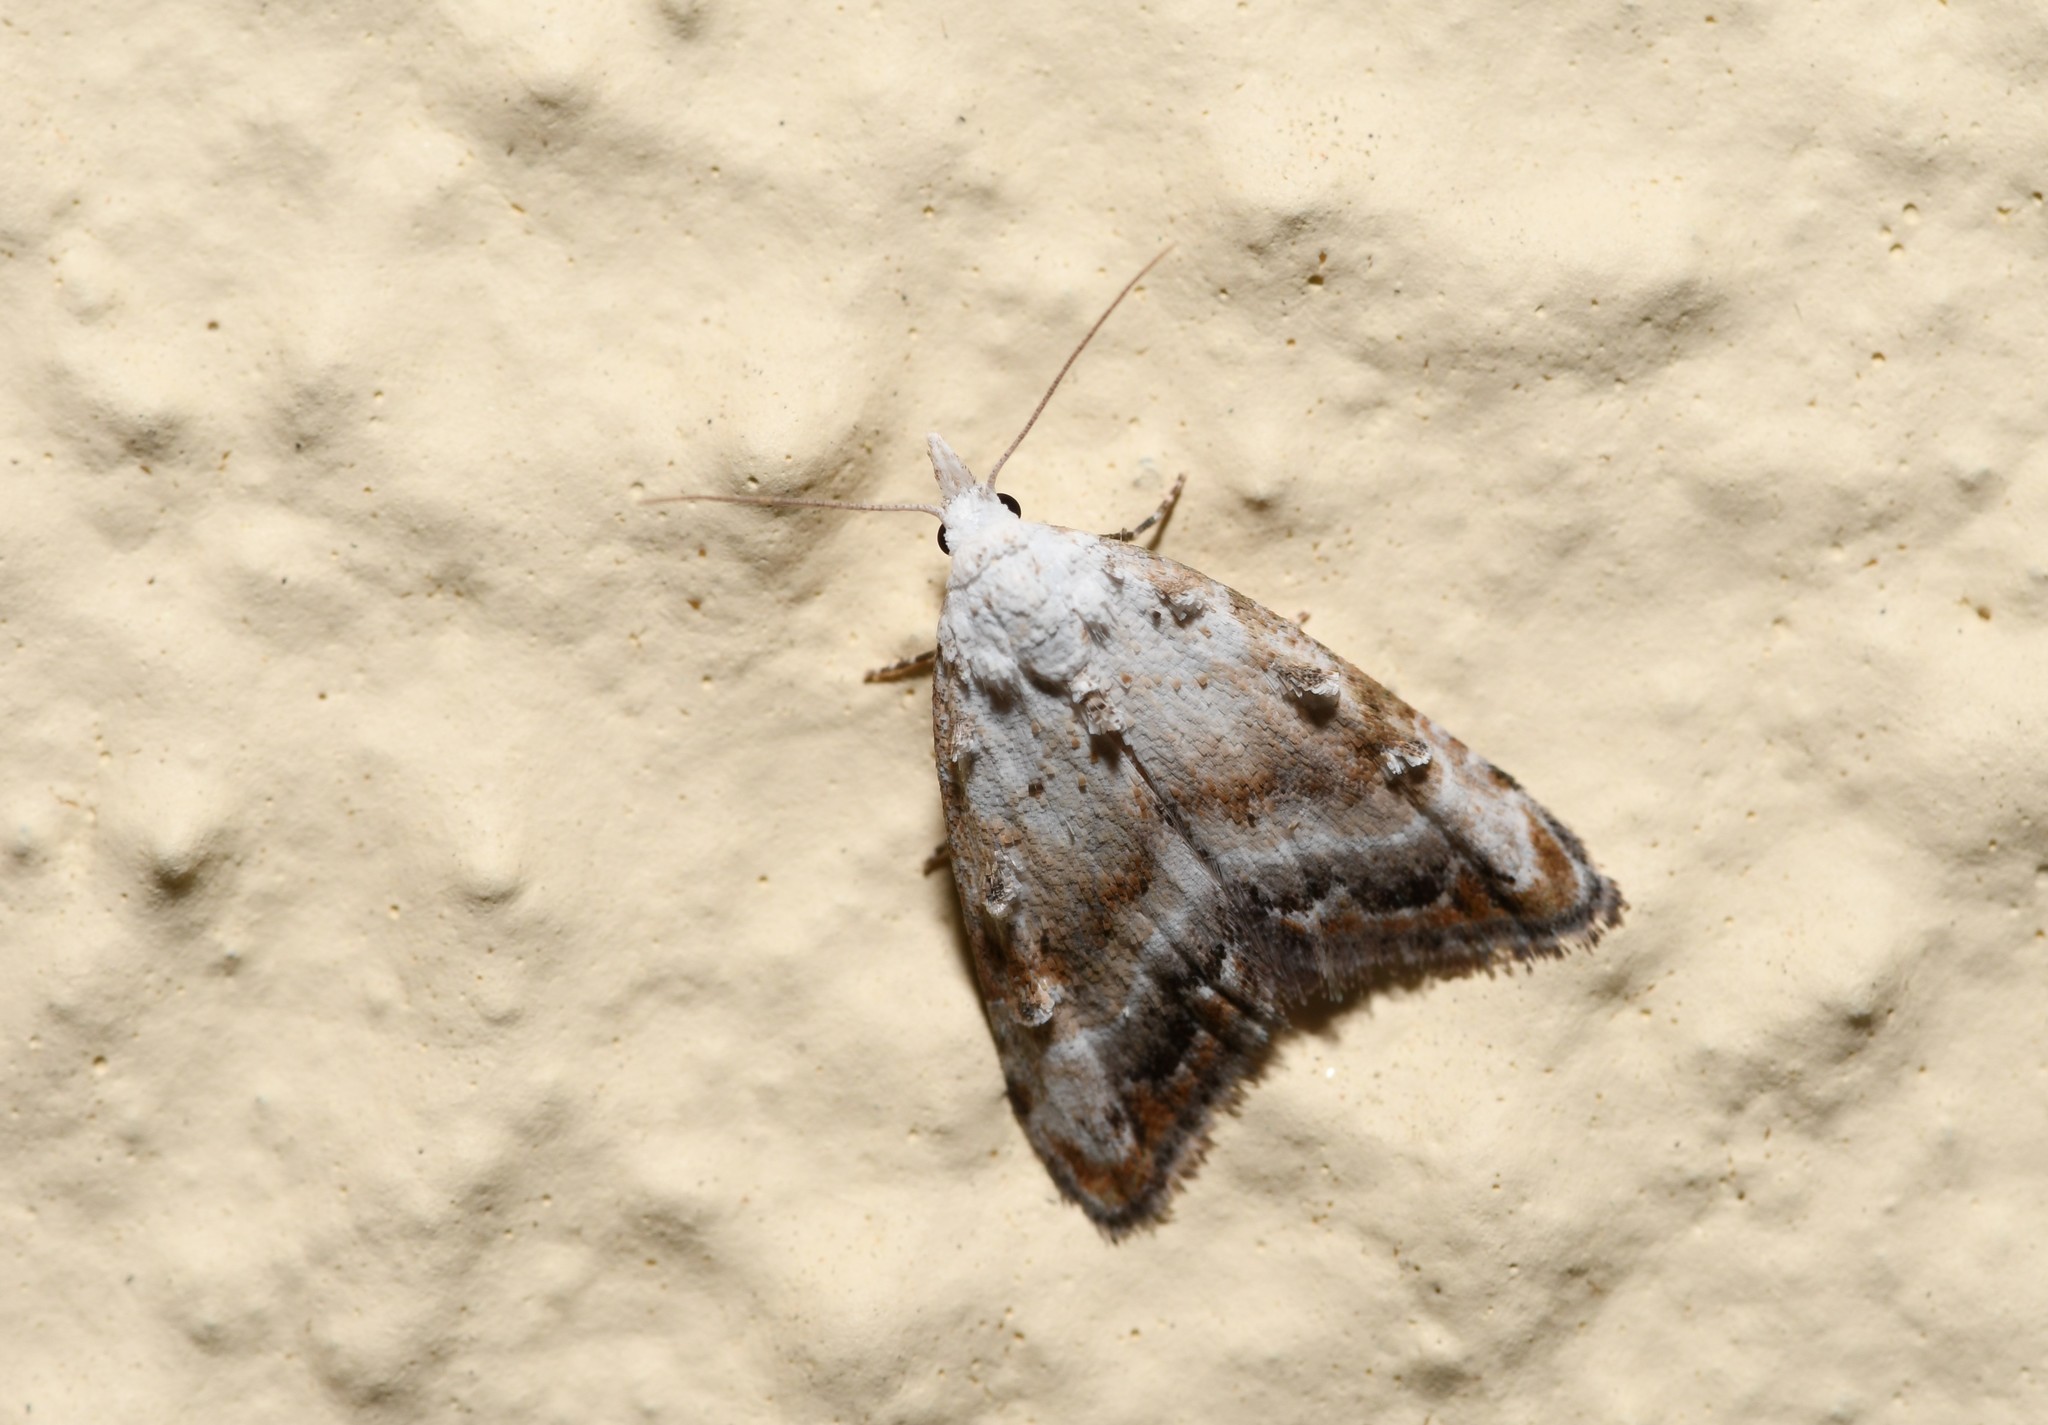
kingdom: Animalia
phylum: Arthropoda
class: Insecta
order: Lepidoptera
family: Nolidae
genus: Nola
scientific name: Nola subchlamydula
